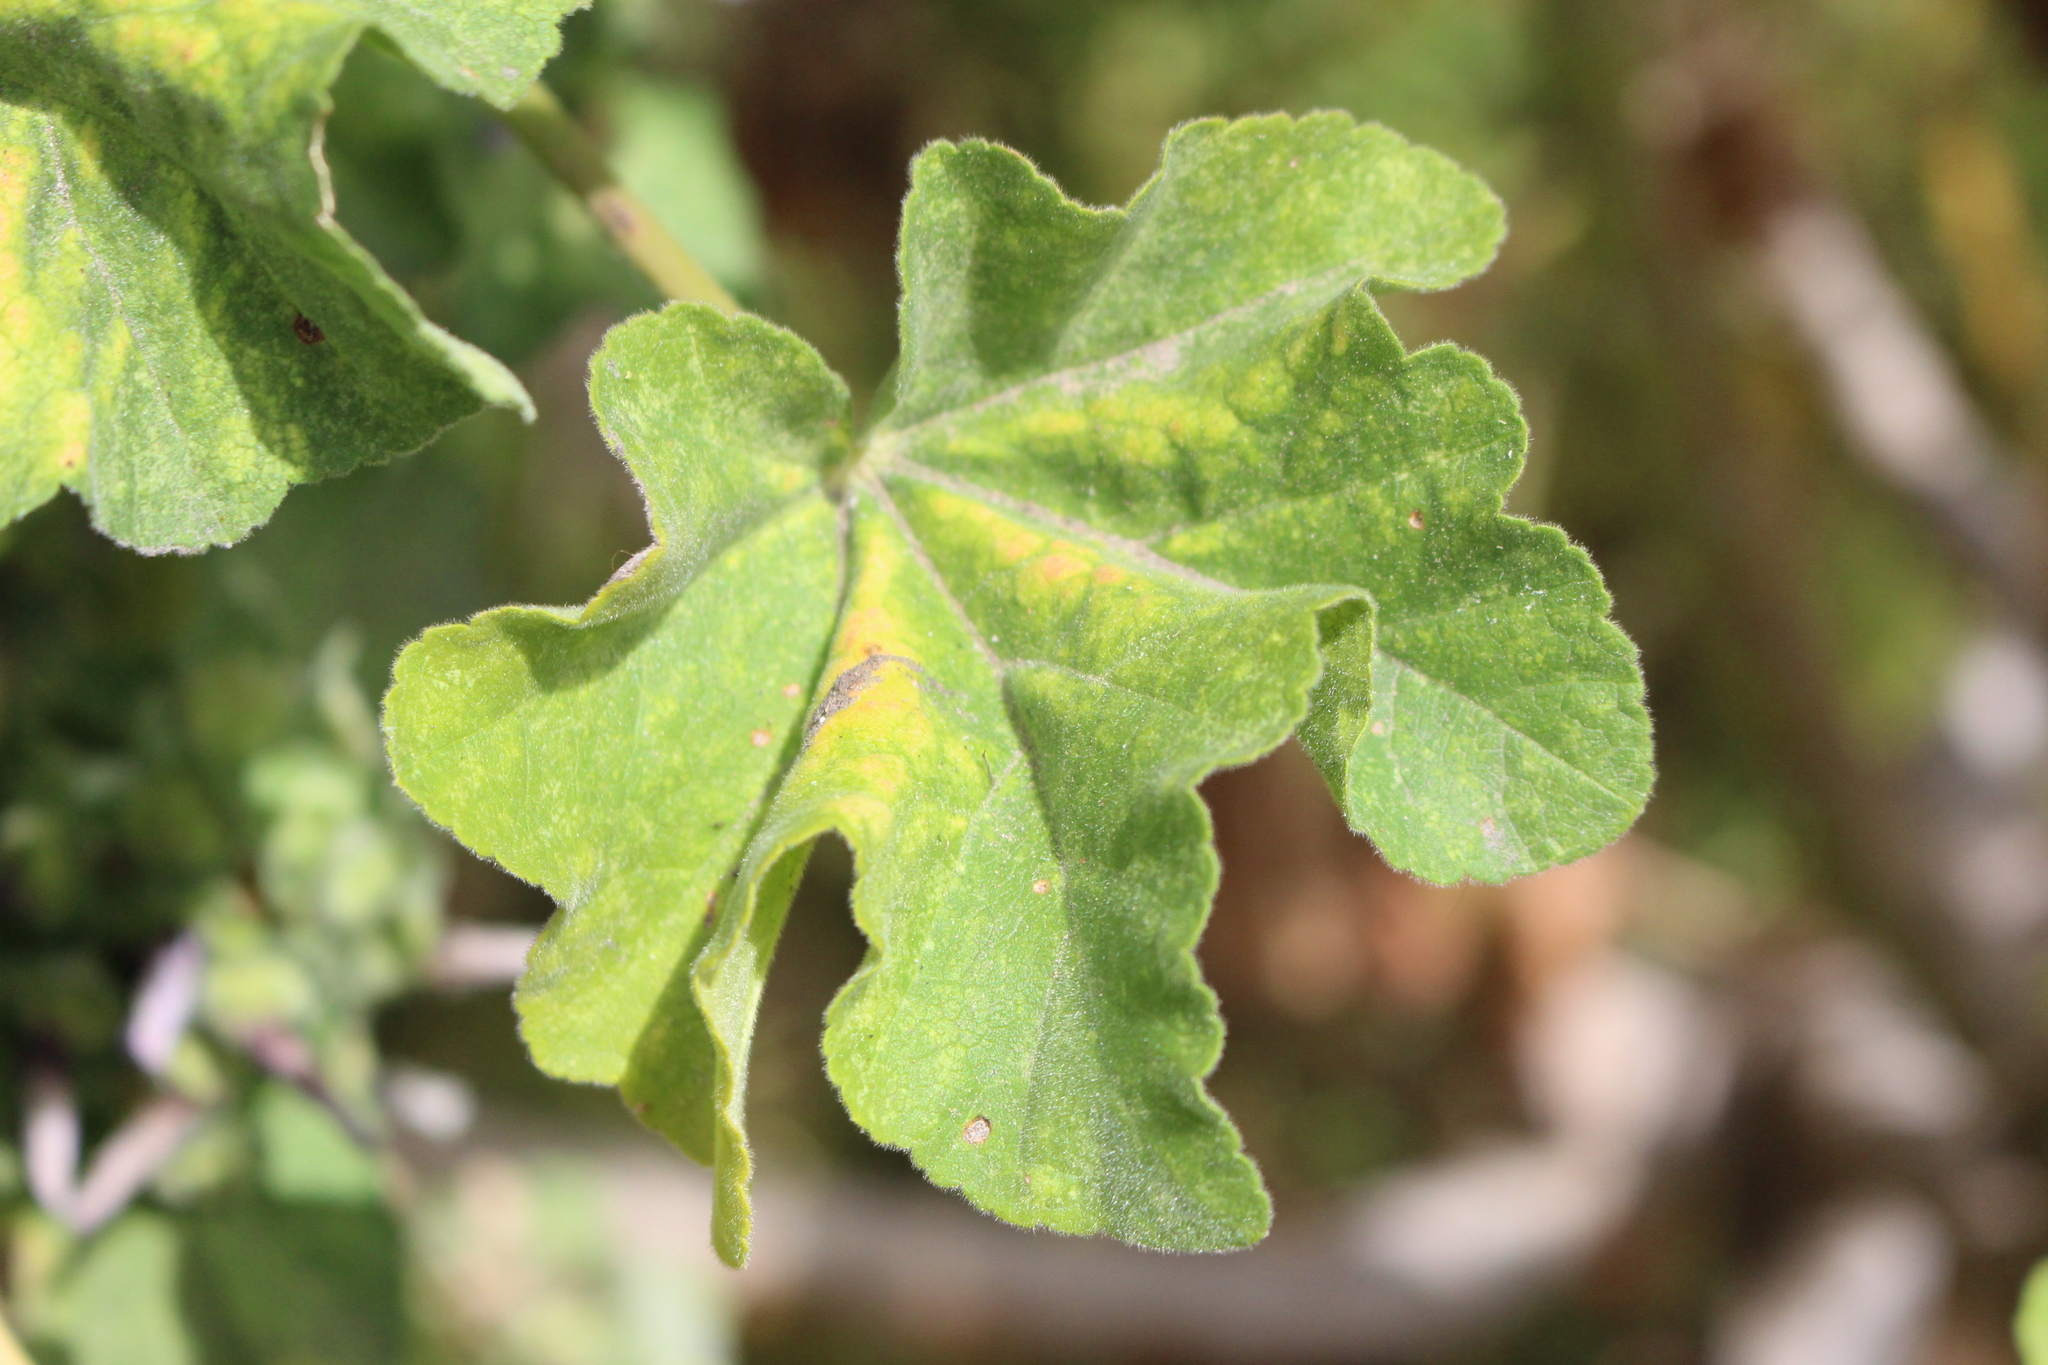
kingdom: Plantae
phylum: Tracheophyta
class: Magnoliopsida
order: Malvales
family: Malvaceae
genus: Malva
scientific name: Malva arborea
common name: Tree mallow
